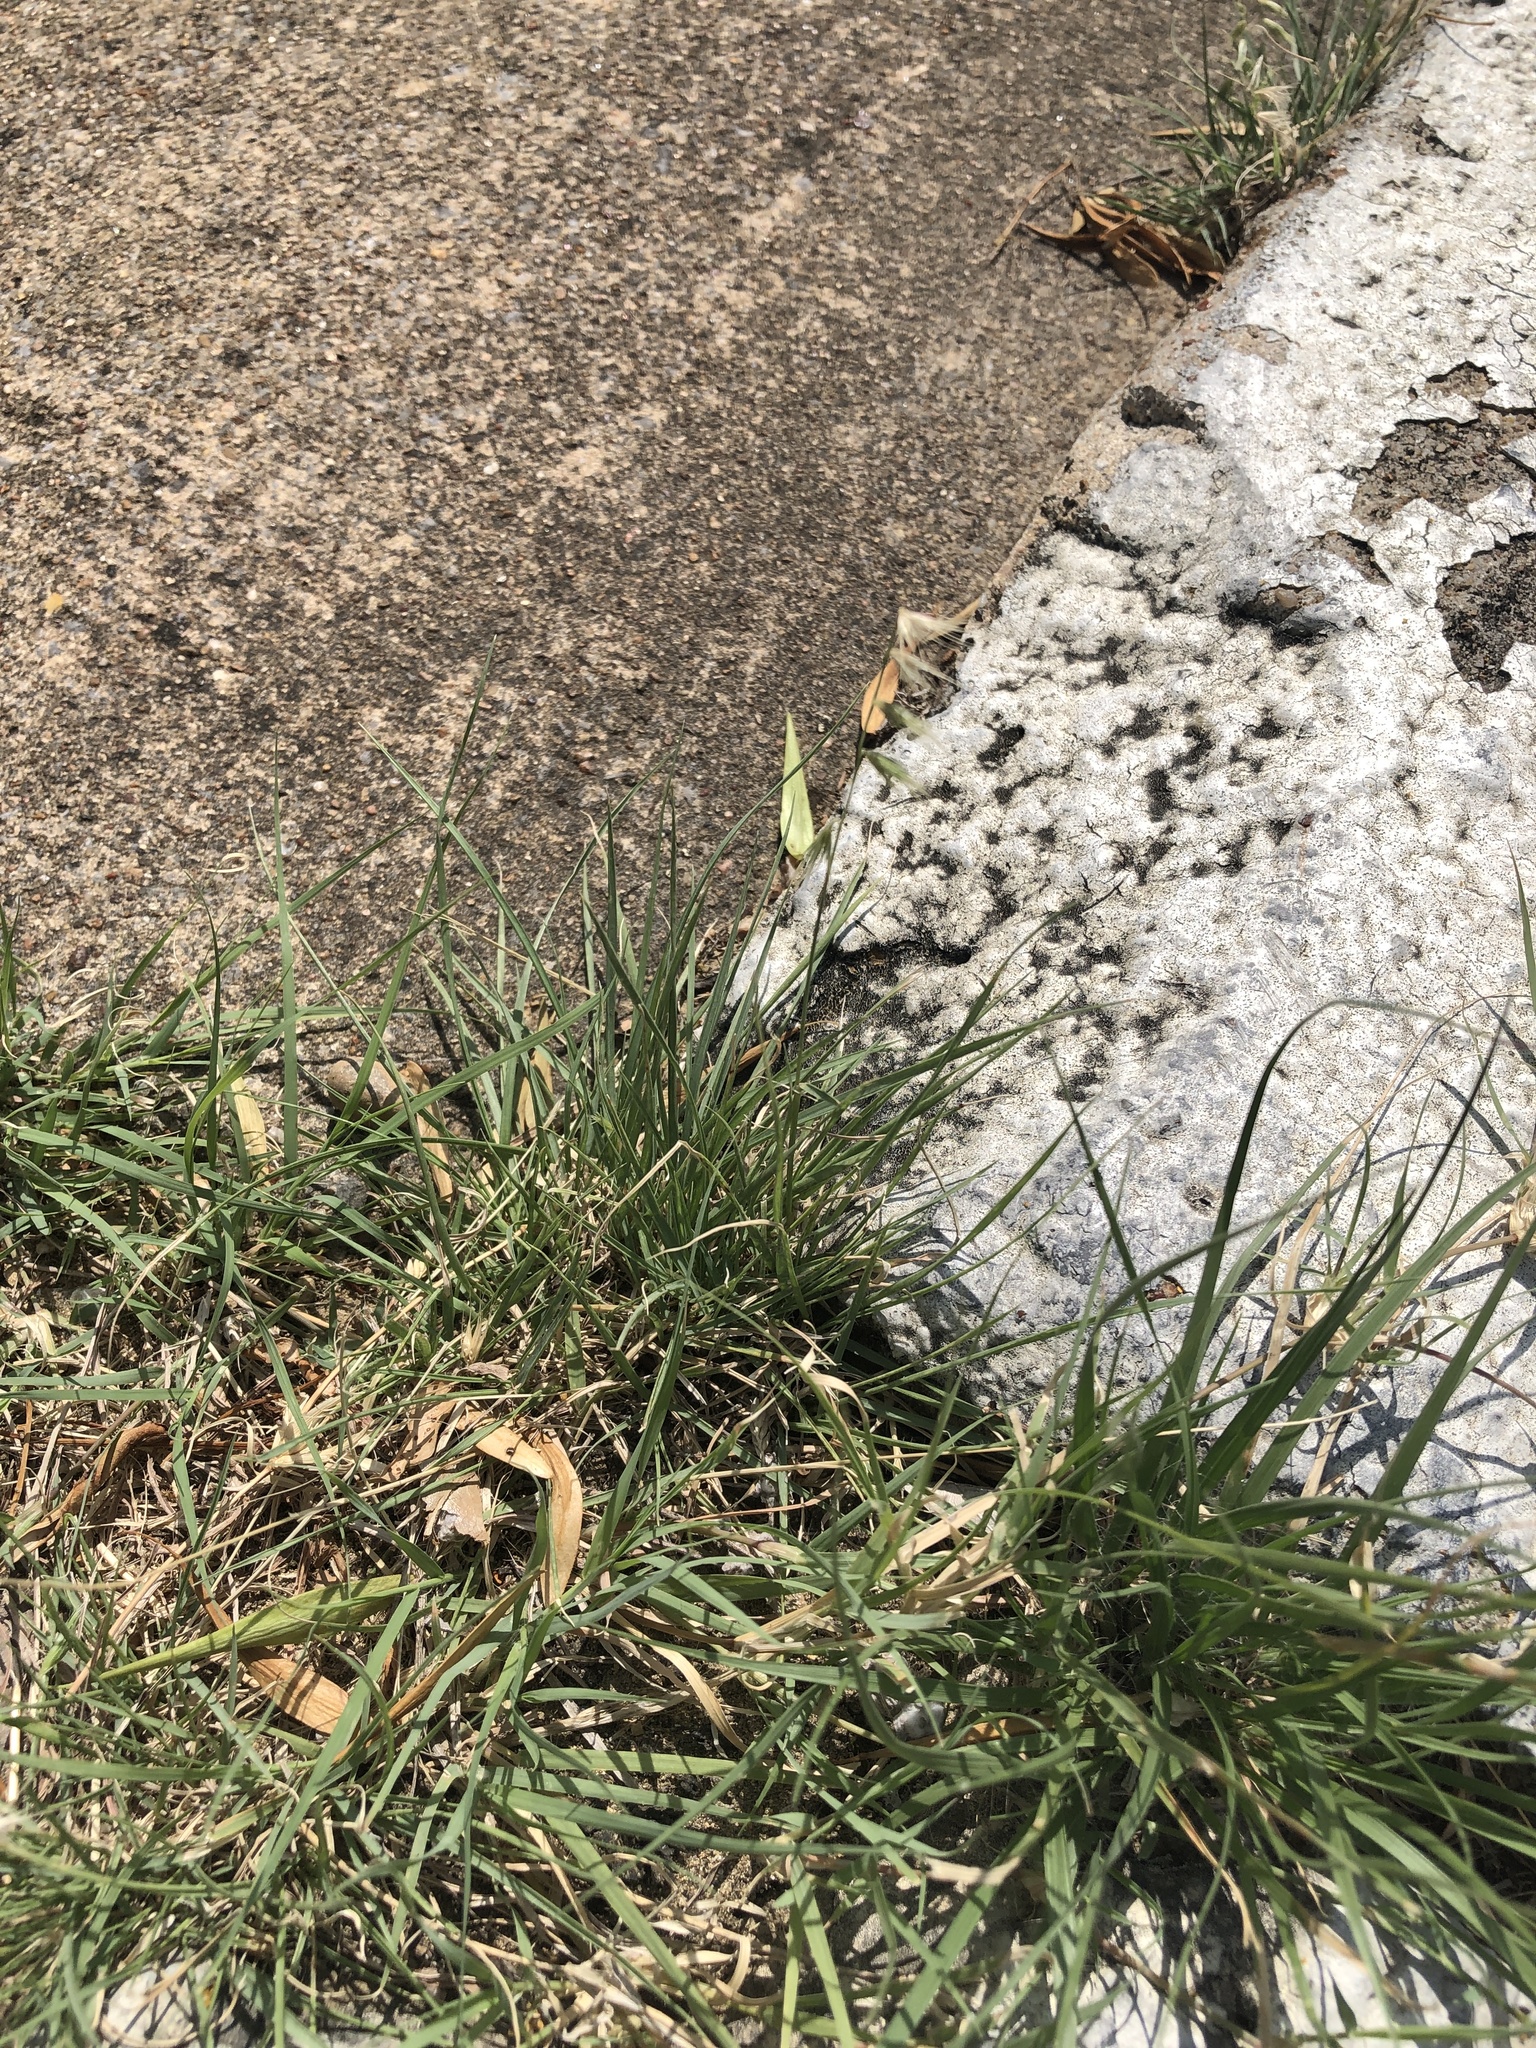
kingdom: Plantae
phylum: Tracheophyta
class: Liliopsida
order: Poales
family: Poaceae
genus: Bouteloua
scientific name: Bouteloua rigidiseta
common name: Texas grama
